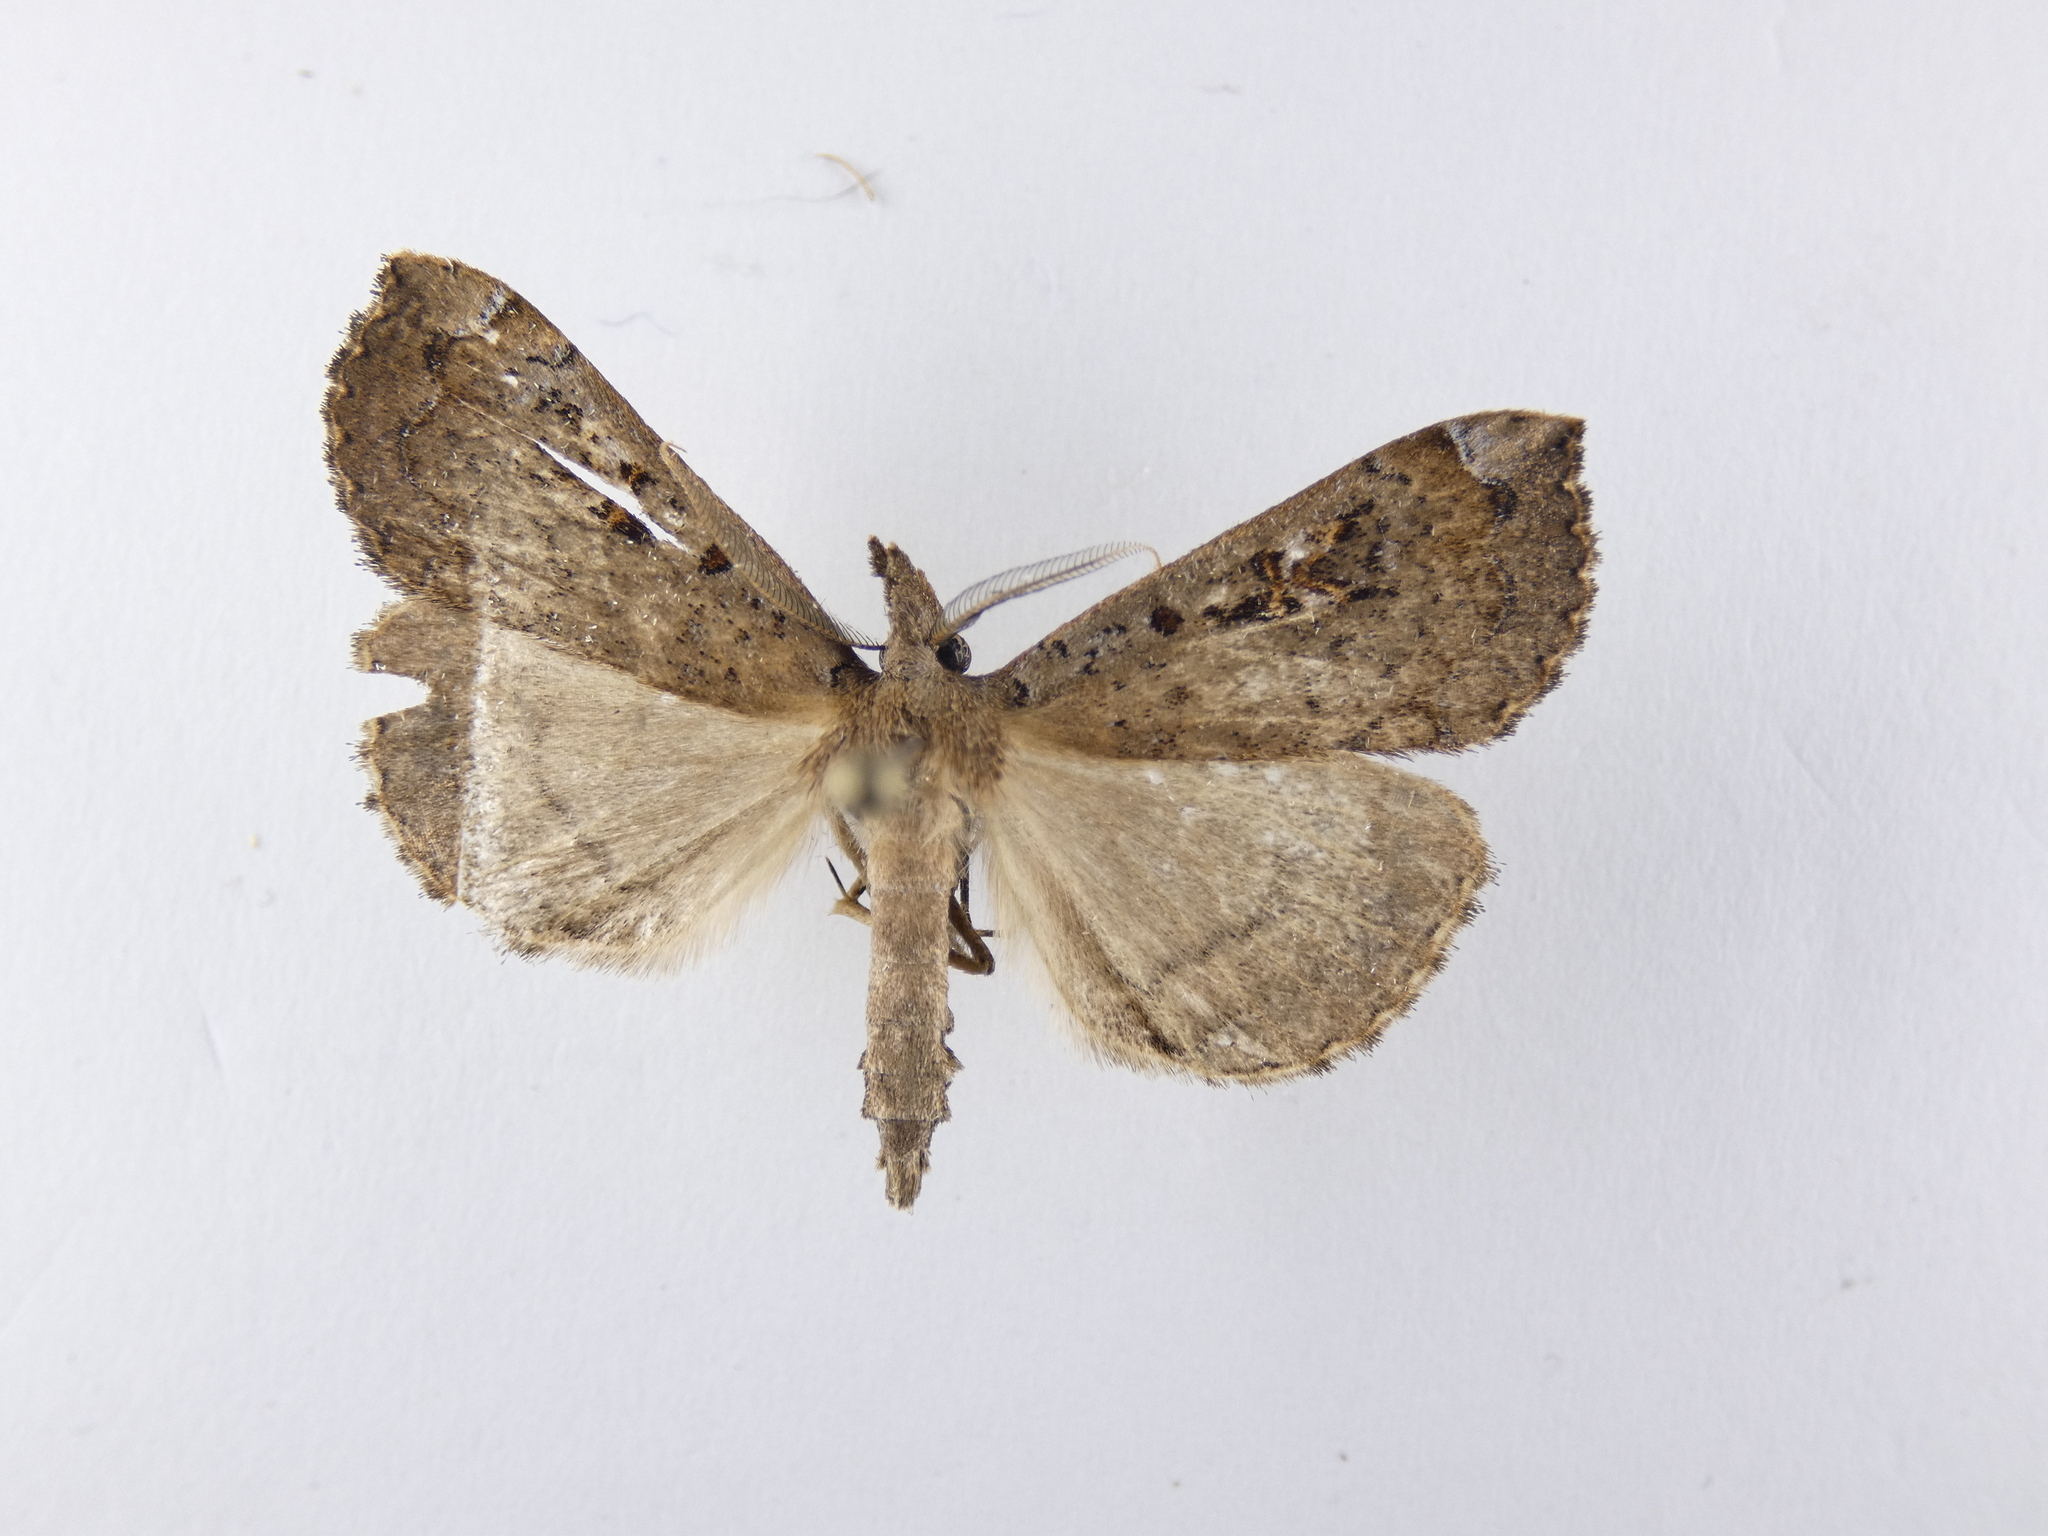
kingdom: Animalia
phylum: Arthropoda
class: Insecta
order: Lepidoptera
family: Erebidae
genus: Rhapsa
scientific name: Rhapsa scotosialis
